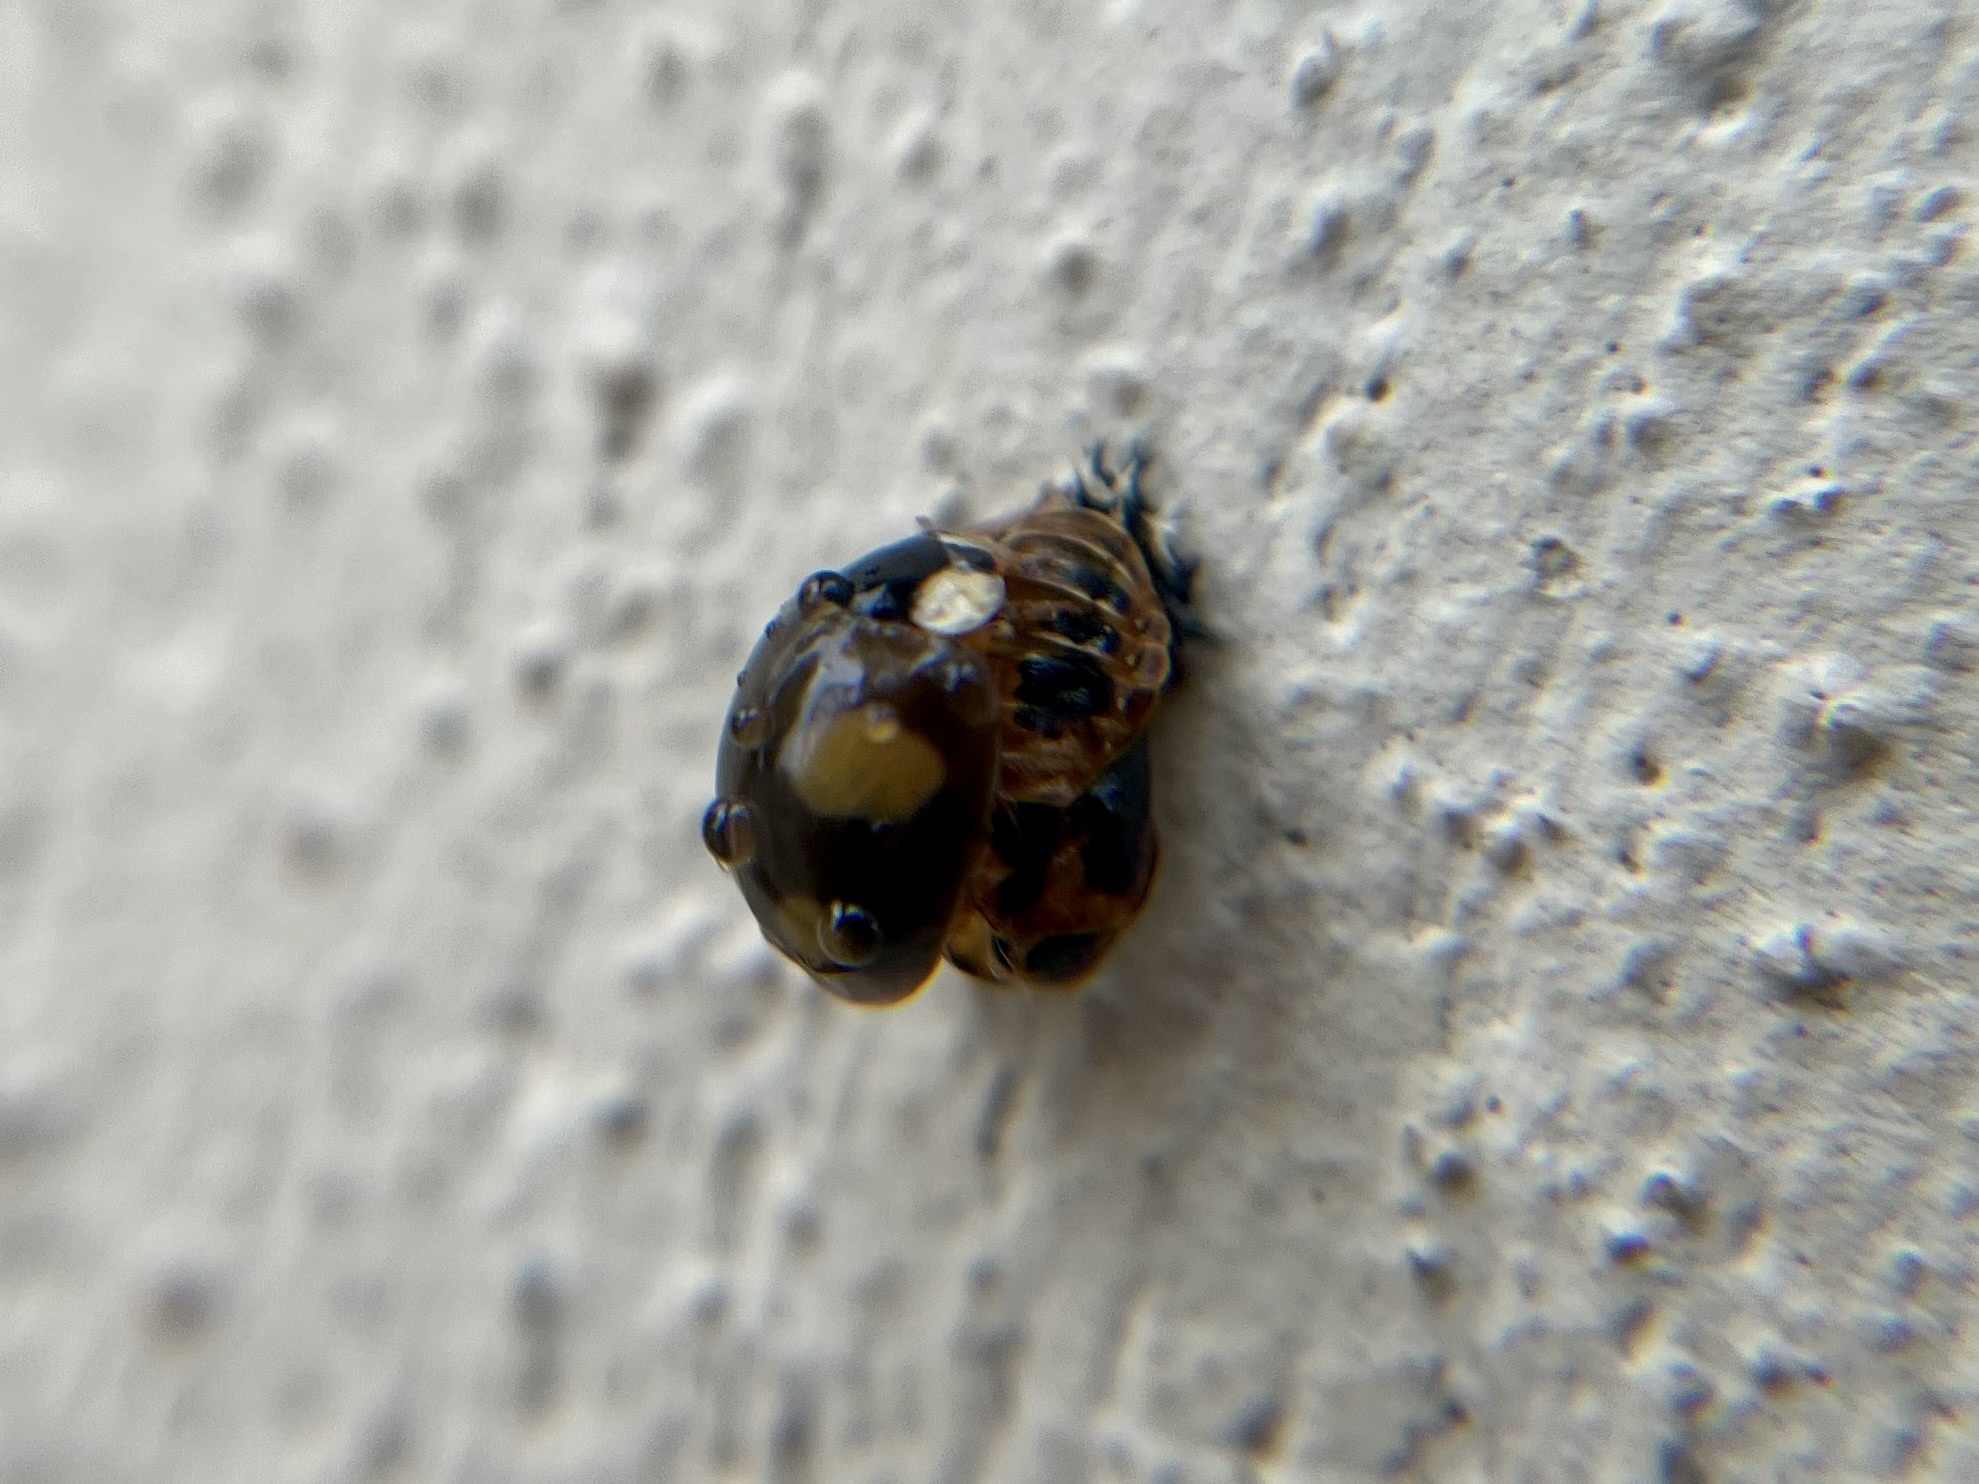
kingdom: Animalia
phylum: Arthropoda
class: Insecta
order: Coleoptera
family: Coccinellidae
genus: Harmonia
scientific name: Harmonia axyridis
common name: Harlequin ladybird
